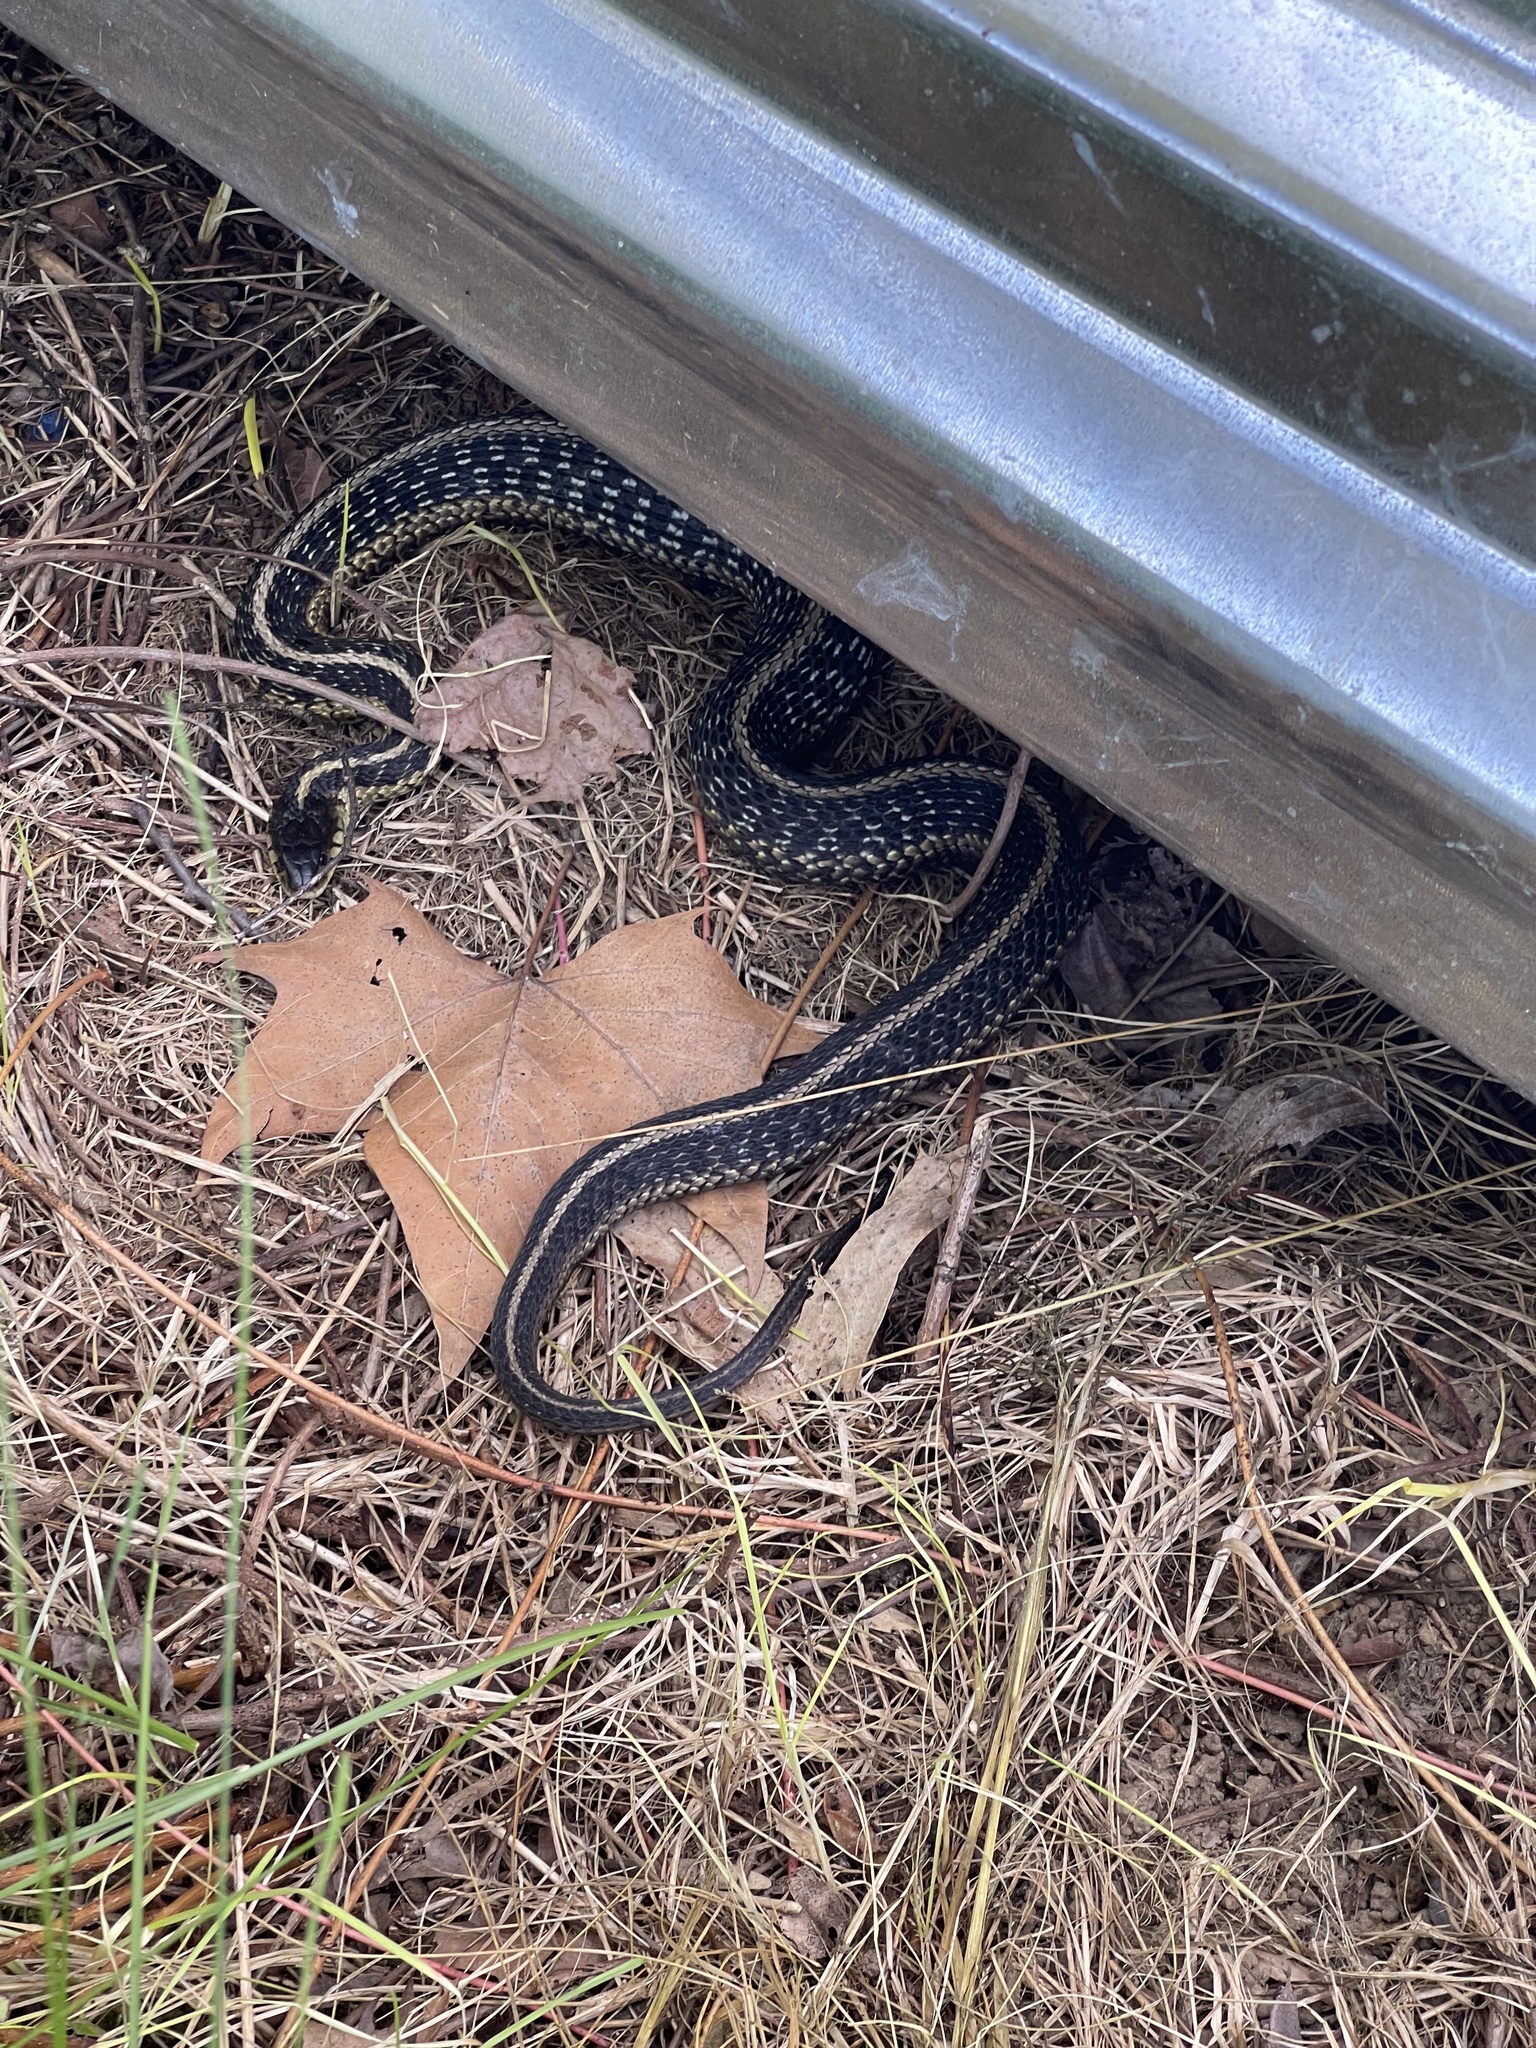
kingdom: Animalia
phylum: Chordata
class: Squamata
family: Colubridae
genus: Thamnophis
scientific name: Thamnophis sirtalis
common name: Common garter snake
